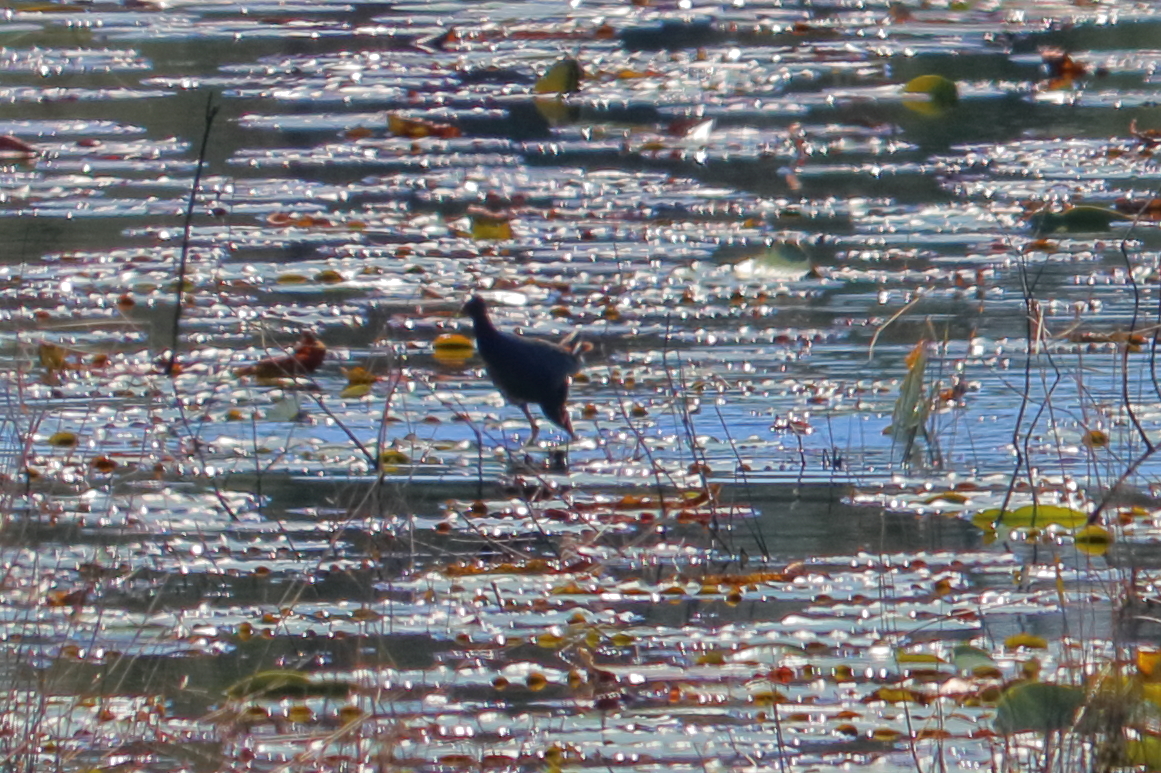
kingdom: Animalia
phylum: Chordata
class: Aves
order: Gruiformes
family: Rallidae
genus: Porphyrio
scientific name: Porphyrio martinica
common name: Purple gallinule
